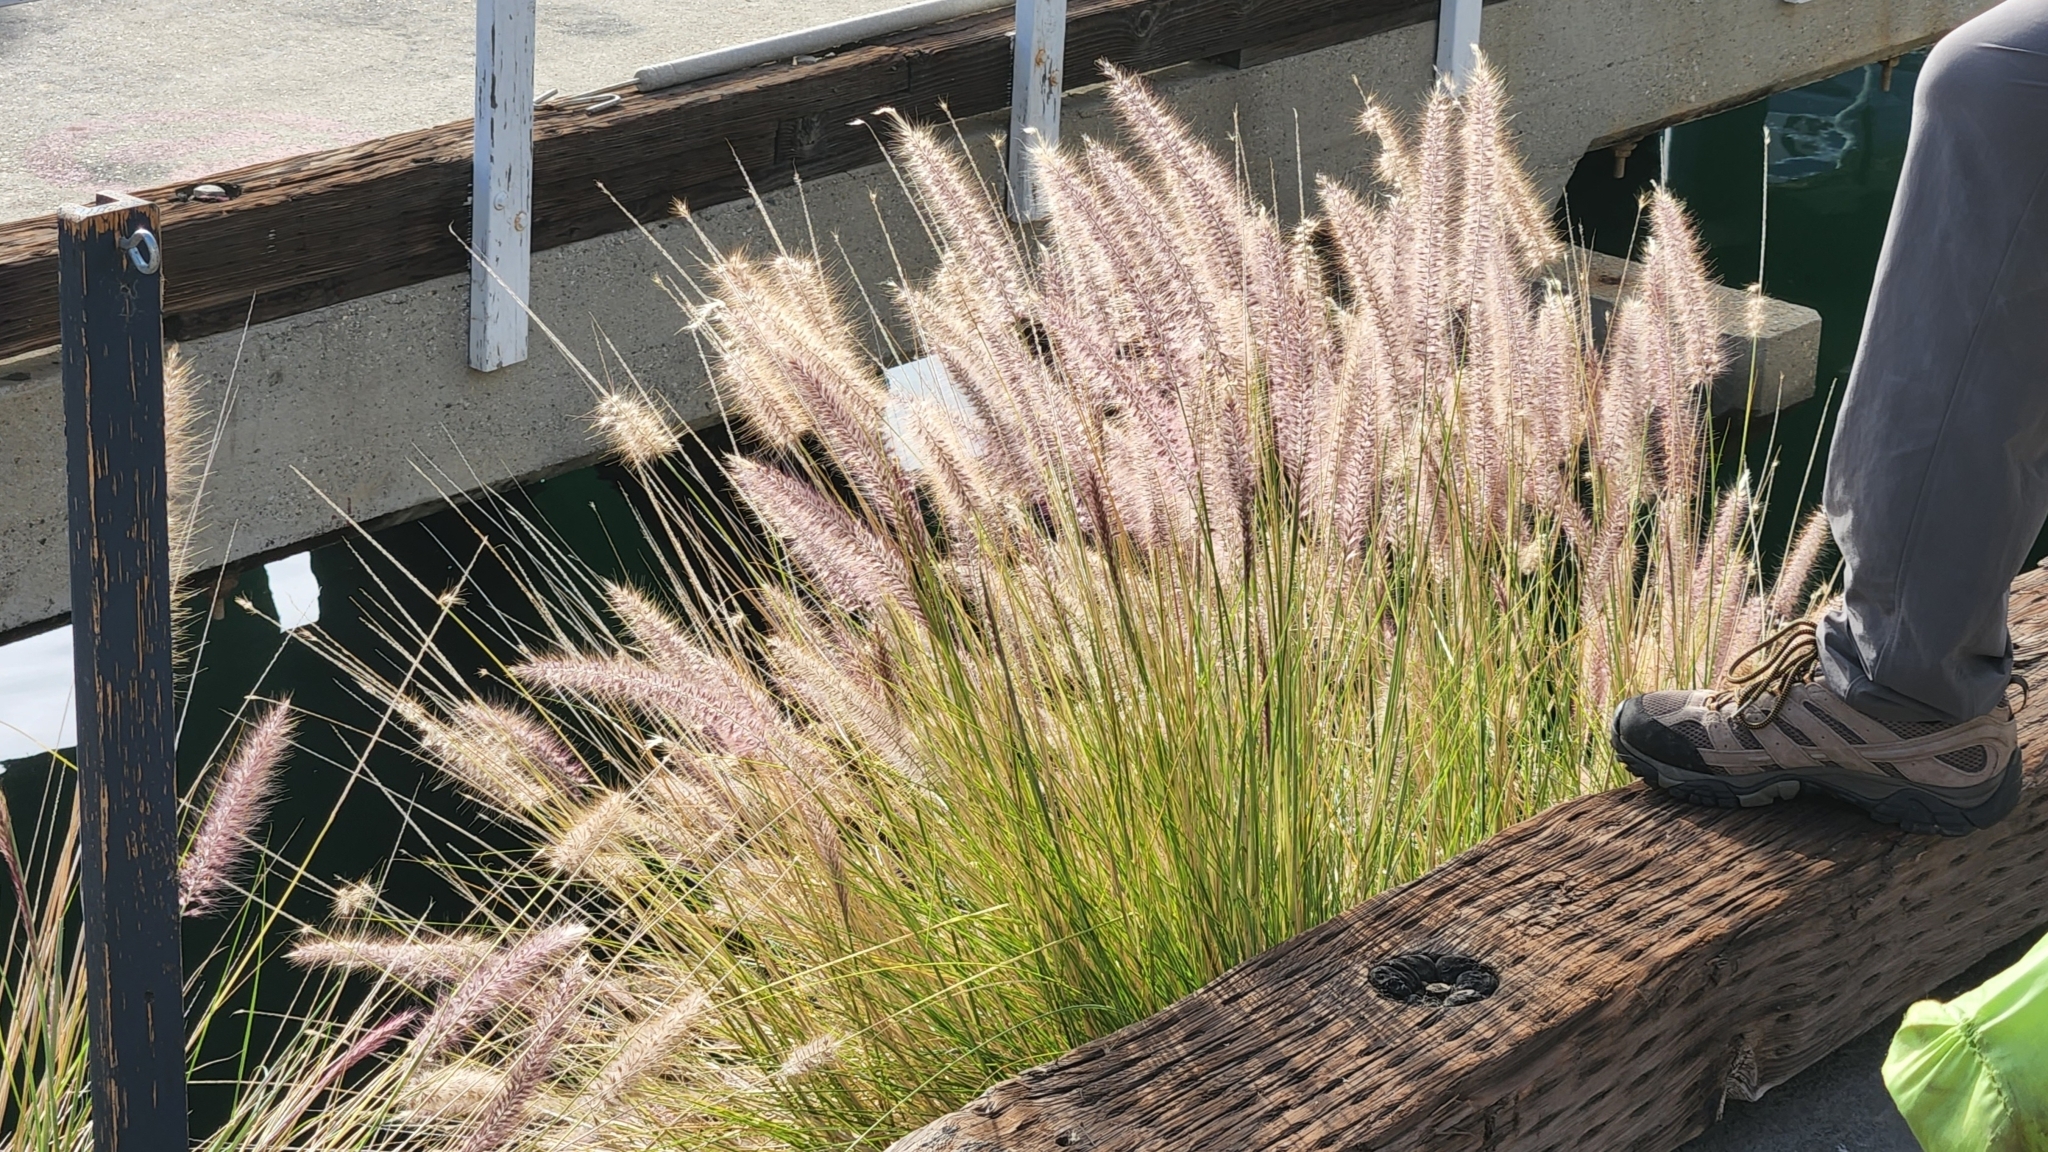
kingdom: Plantae
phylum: Tracheophyta
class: Liliopsida
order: Poales
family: Poaceae
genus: Cenchrus
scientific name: Cenchrus setaceus
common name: Crimson fountaingrass
